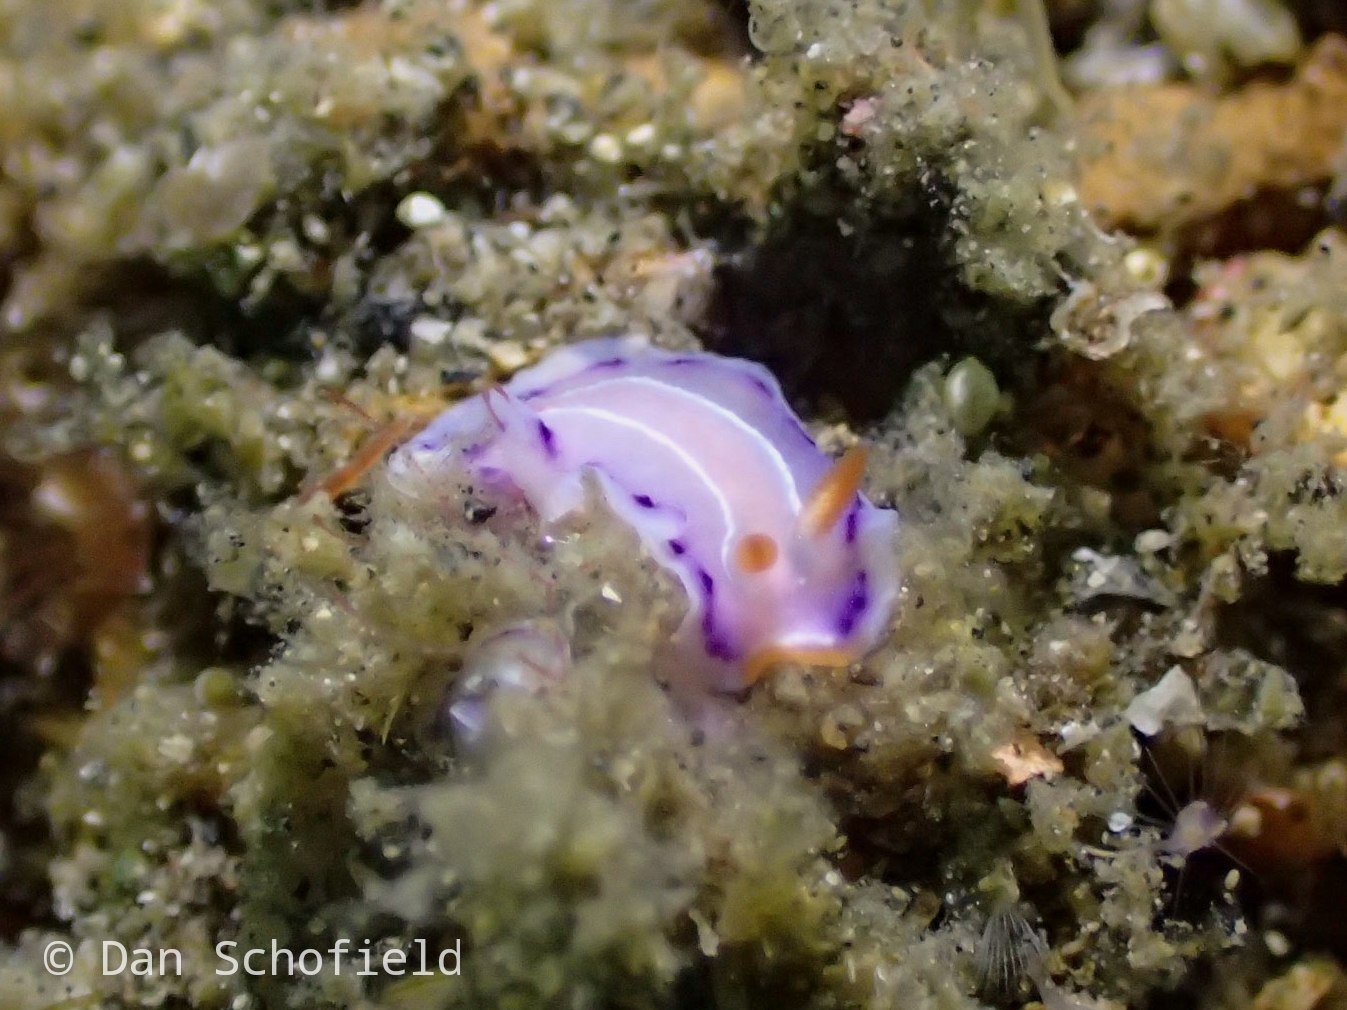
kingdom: Animalia
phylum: Mollusca
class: Gastropoda
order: Nudibranchia
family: Chromodorididae
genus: Thorunna
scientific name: Thorunna florens
